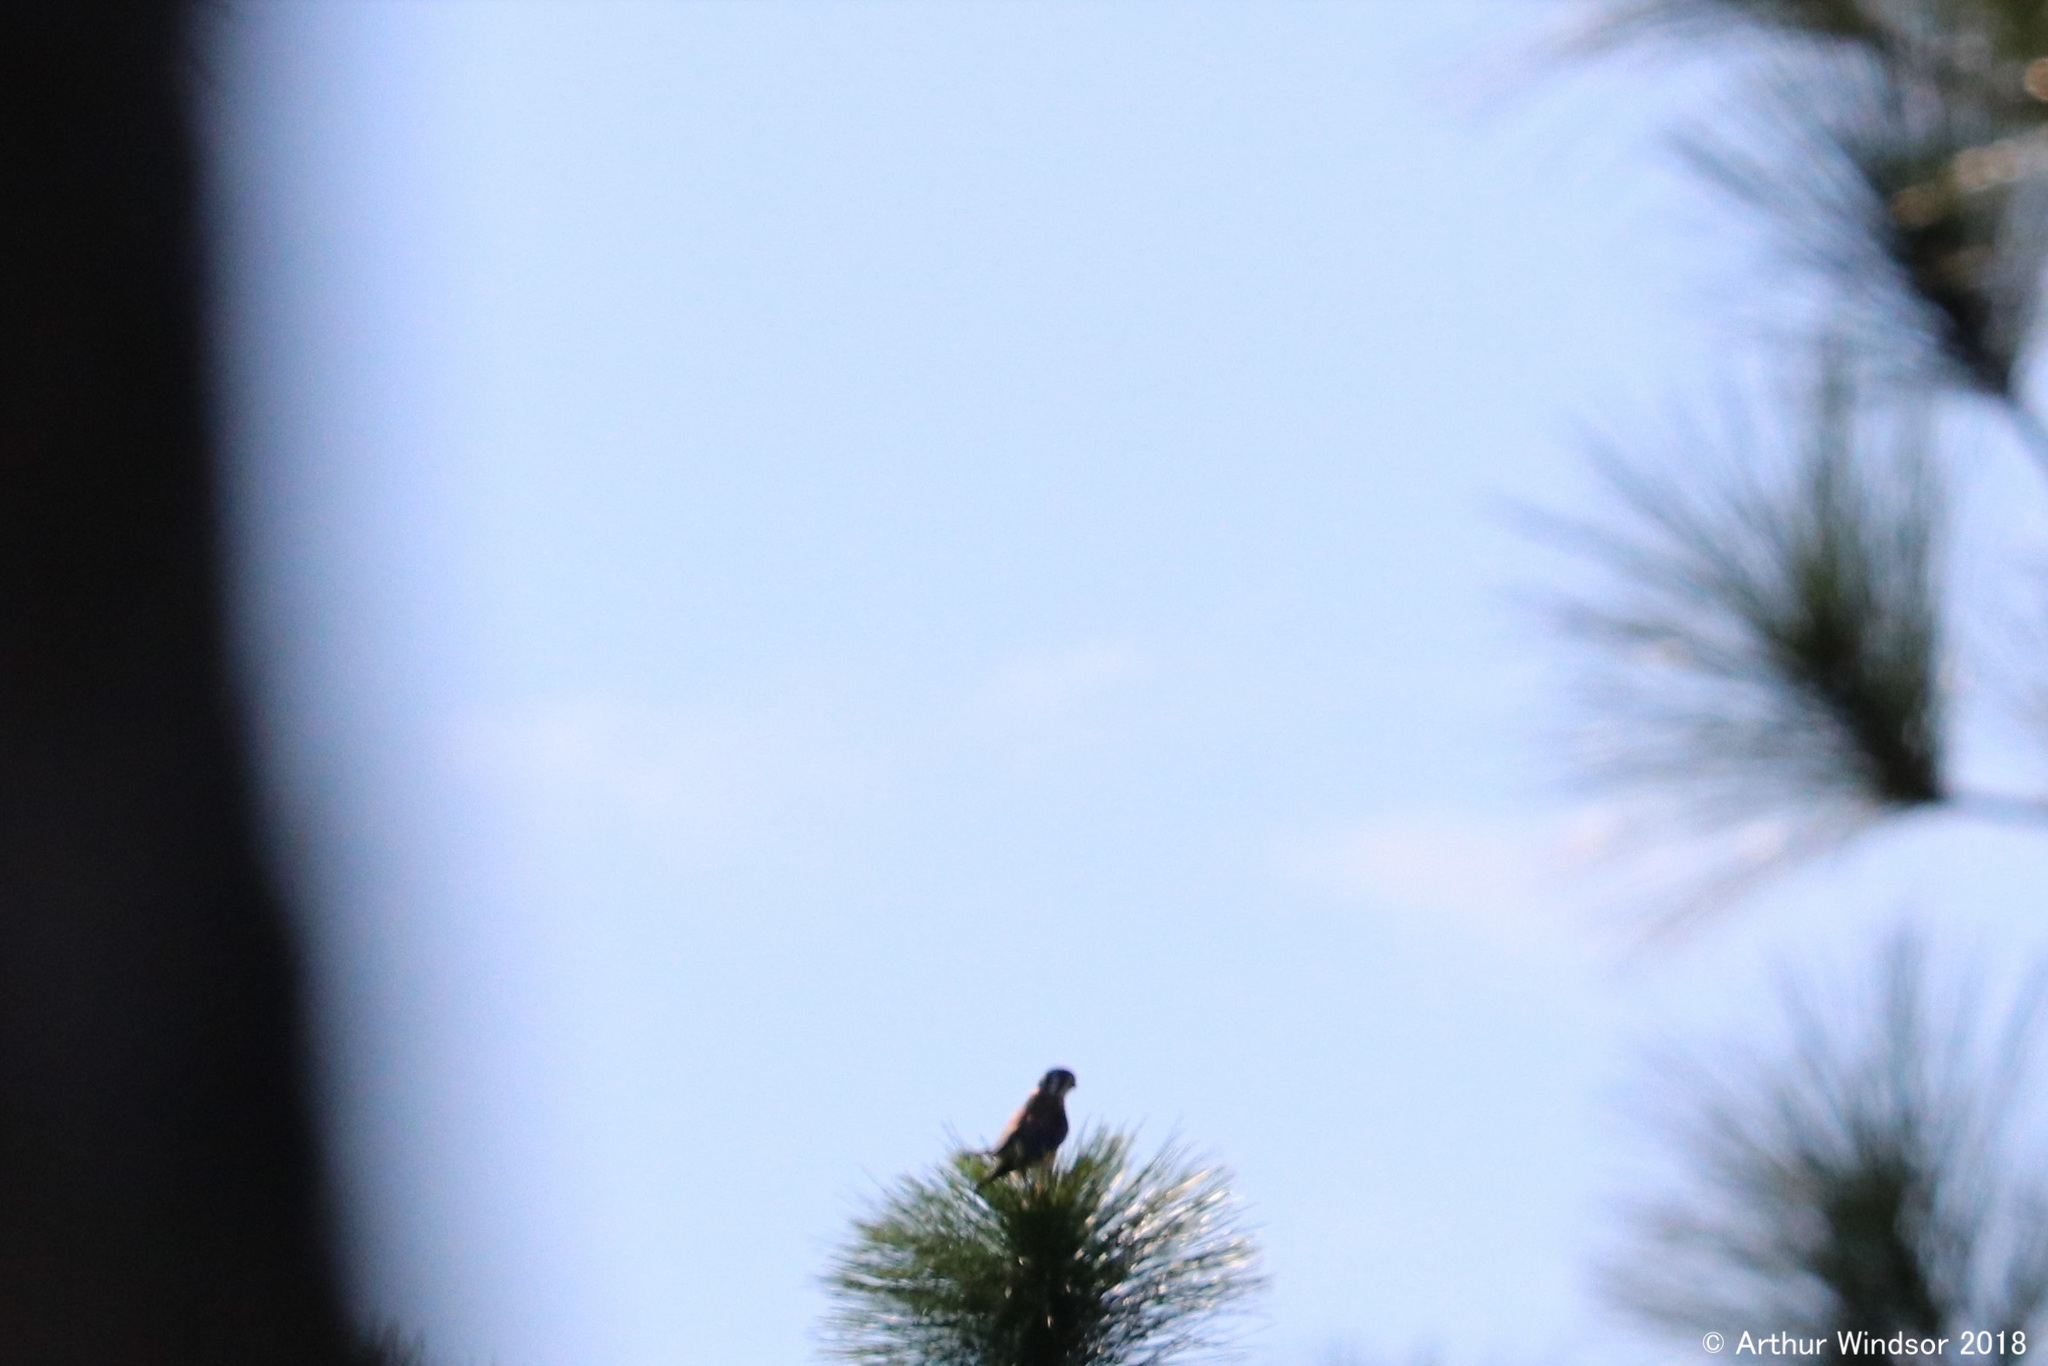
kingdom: Animalia
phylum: Chordata
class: Aves
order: Falconiformes
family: Falconidae
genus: Falco
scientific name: Falco sparverius
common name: American kestrel
